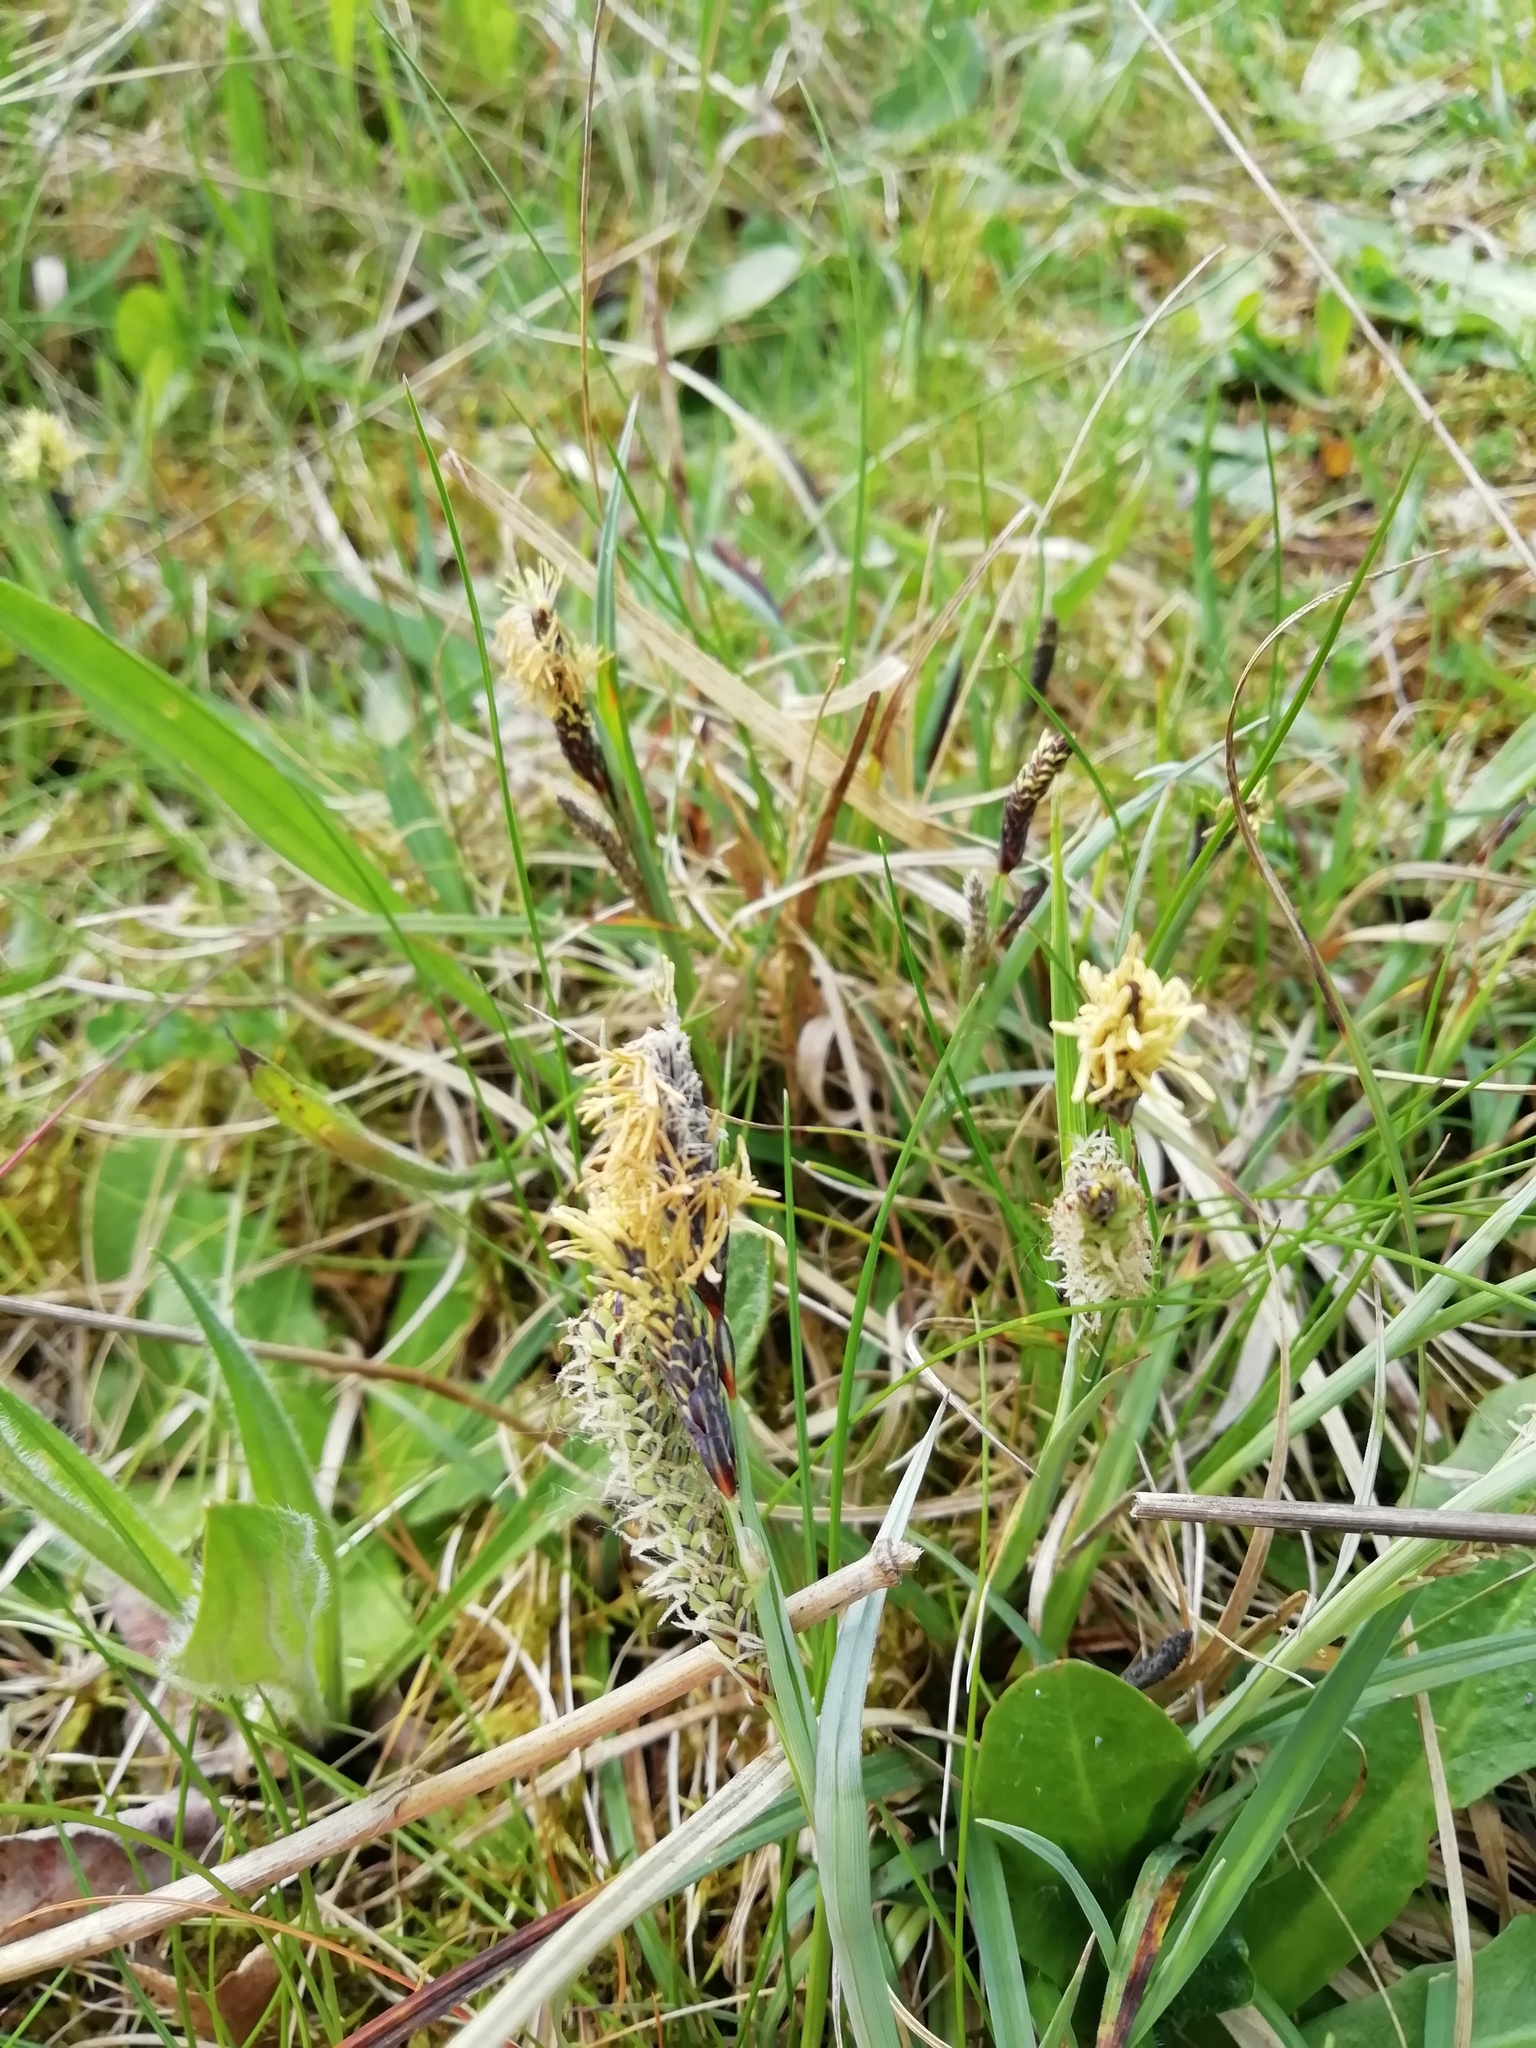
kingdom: Plantae
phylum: Tracheophyta
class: Liliopsida
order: Poales
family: Cyperaceae
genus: Carex
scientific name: Carex flacca
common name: Glaucous sedge
